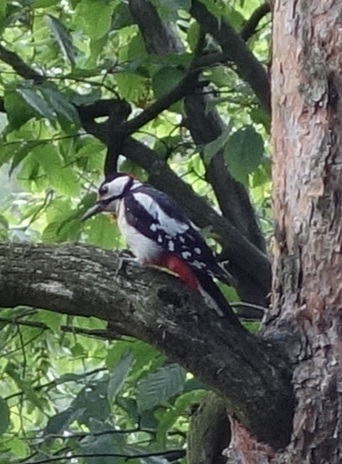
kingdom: Animalia
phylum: Chordata
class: Aves
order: Piciformes
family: Picidae
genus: Dendrocopos
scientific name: Dendrocopos major
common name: Great spotted woodpecker
